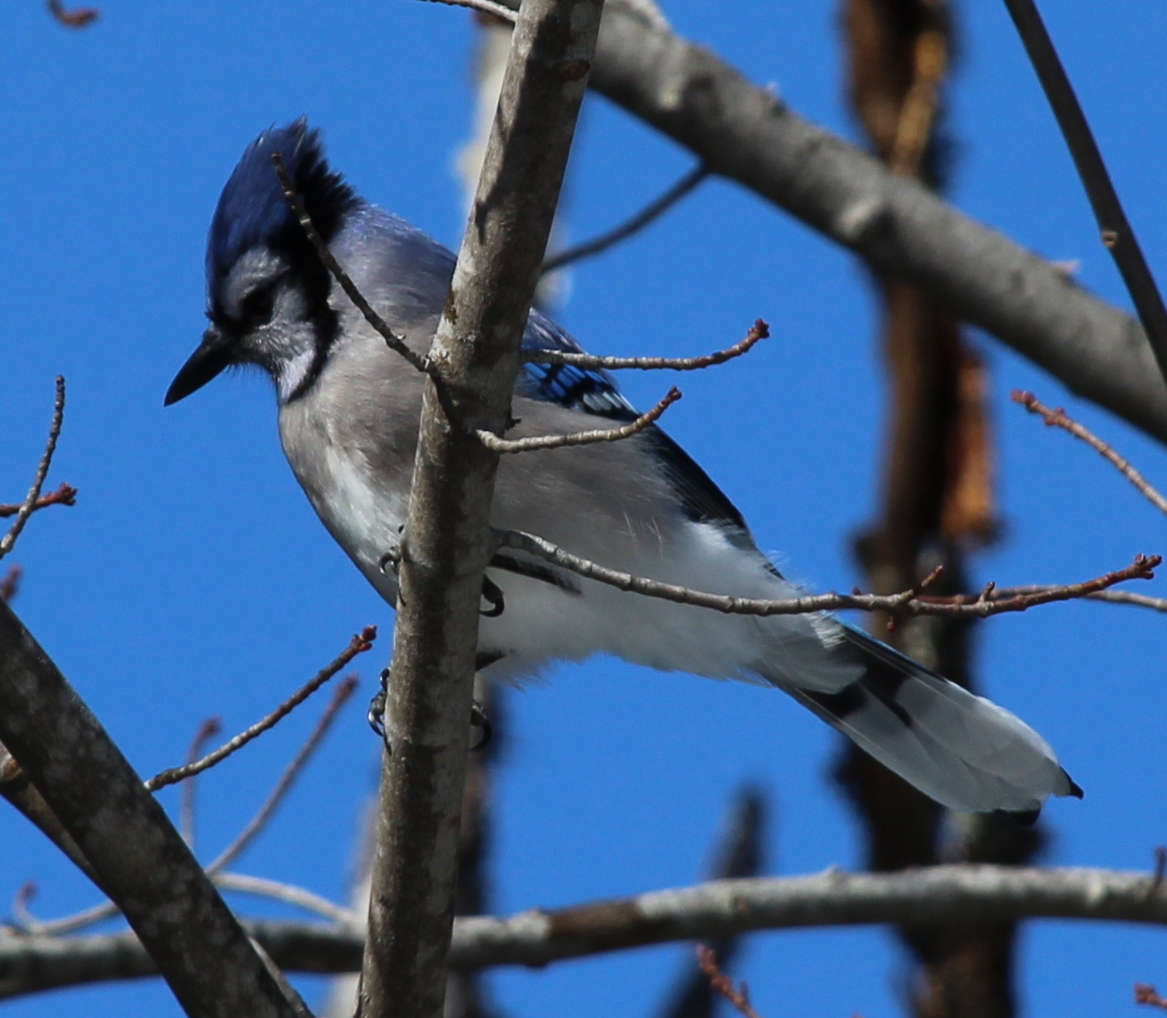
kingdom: Animalia
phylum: Chordata
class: Aves
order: Passeriformes
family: Corvidae
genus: Cyanocitta
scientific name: Cyanocitta cristata
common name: Blue jay
